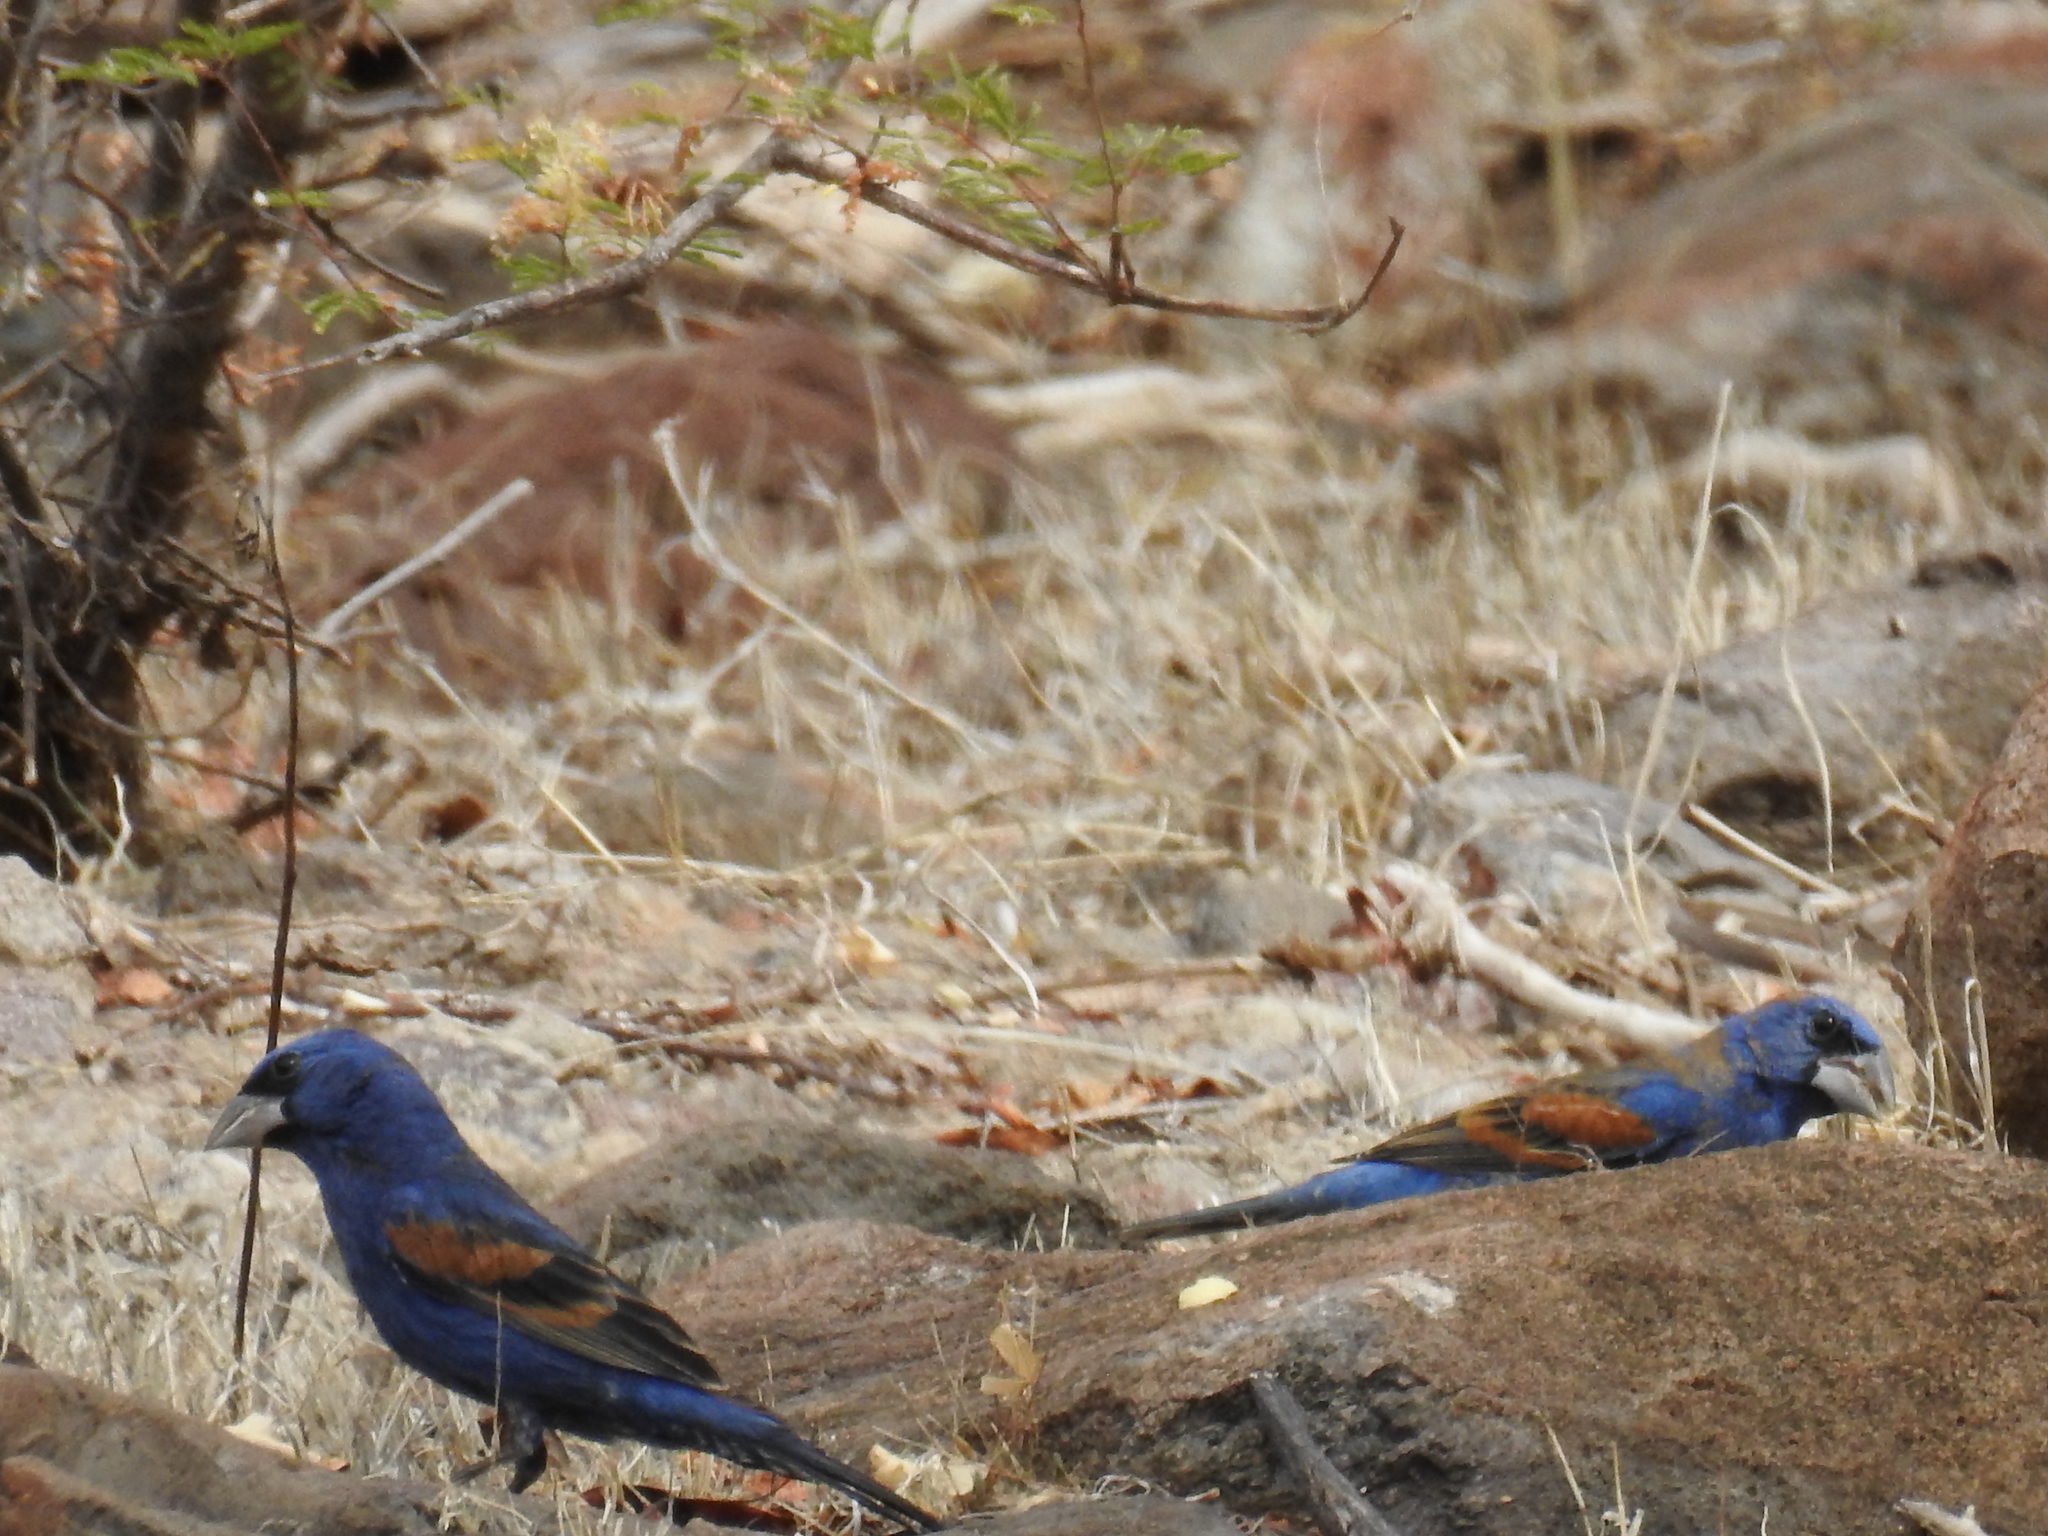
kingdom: Animalia
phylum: Chordata
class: Aves
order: Passeriformes
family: Cardinalidae
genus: Passerina
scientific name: Passerina caerulea
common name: Blue grosbeak
